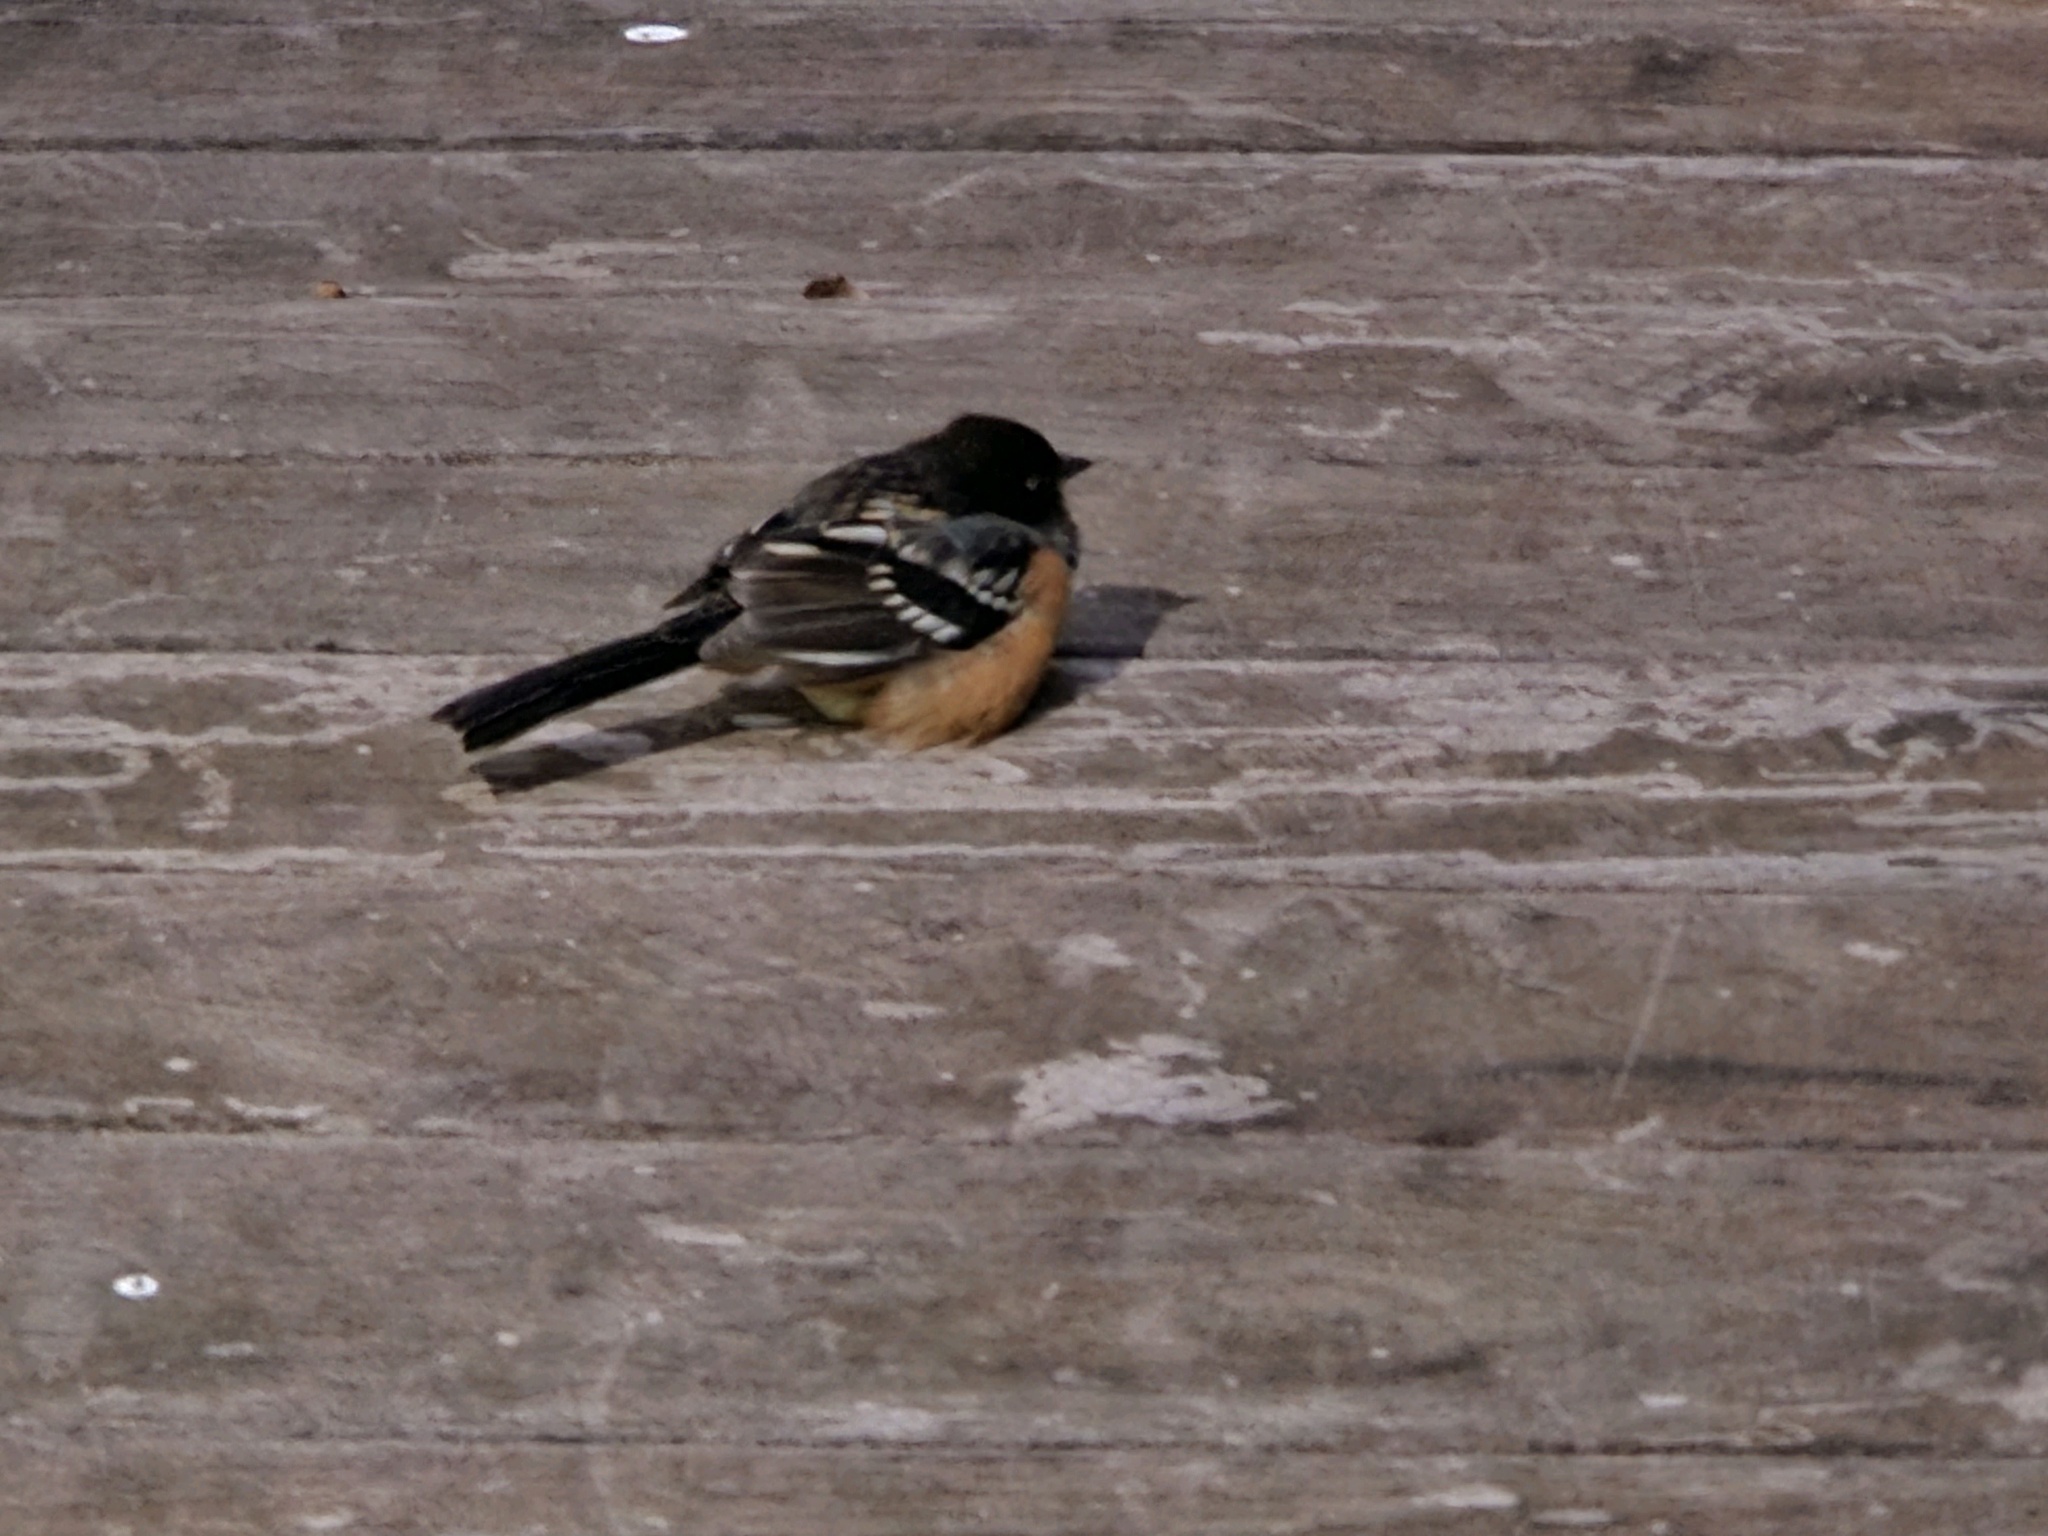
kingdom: Animalia
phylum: Chordata
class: Aves
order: Passeriformes
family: Passerellidae
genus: Pipilo
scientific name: Pipilo maculatus
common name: Spotted towhee
